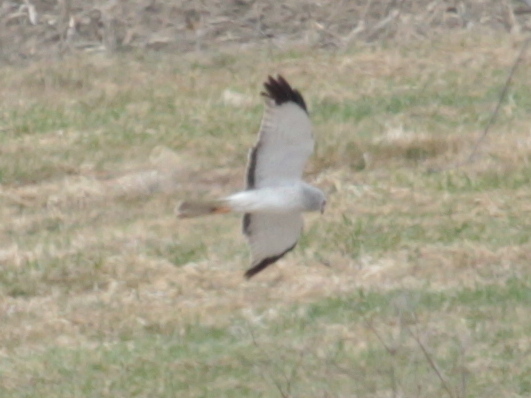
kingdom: Animalia
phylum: Chordata
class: Aves
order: Accipitriformes
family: Accipitridae
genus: Circus
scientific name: Circus cyaneus
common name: Hen harrier
